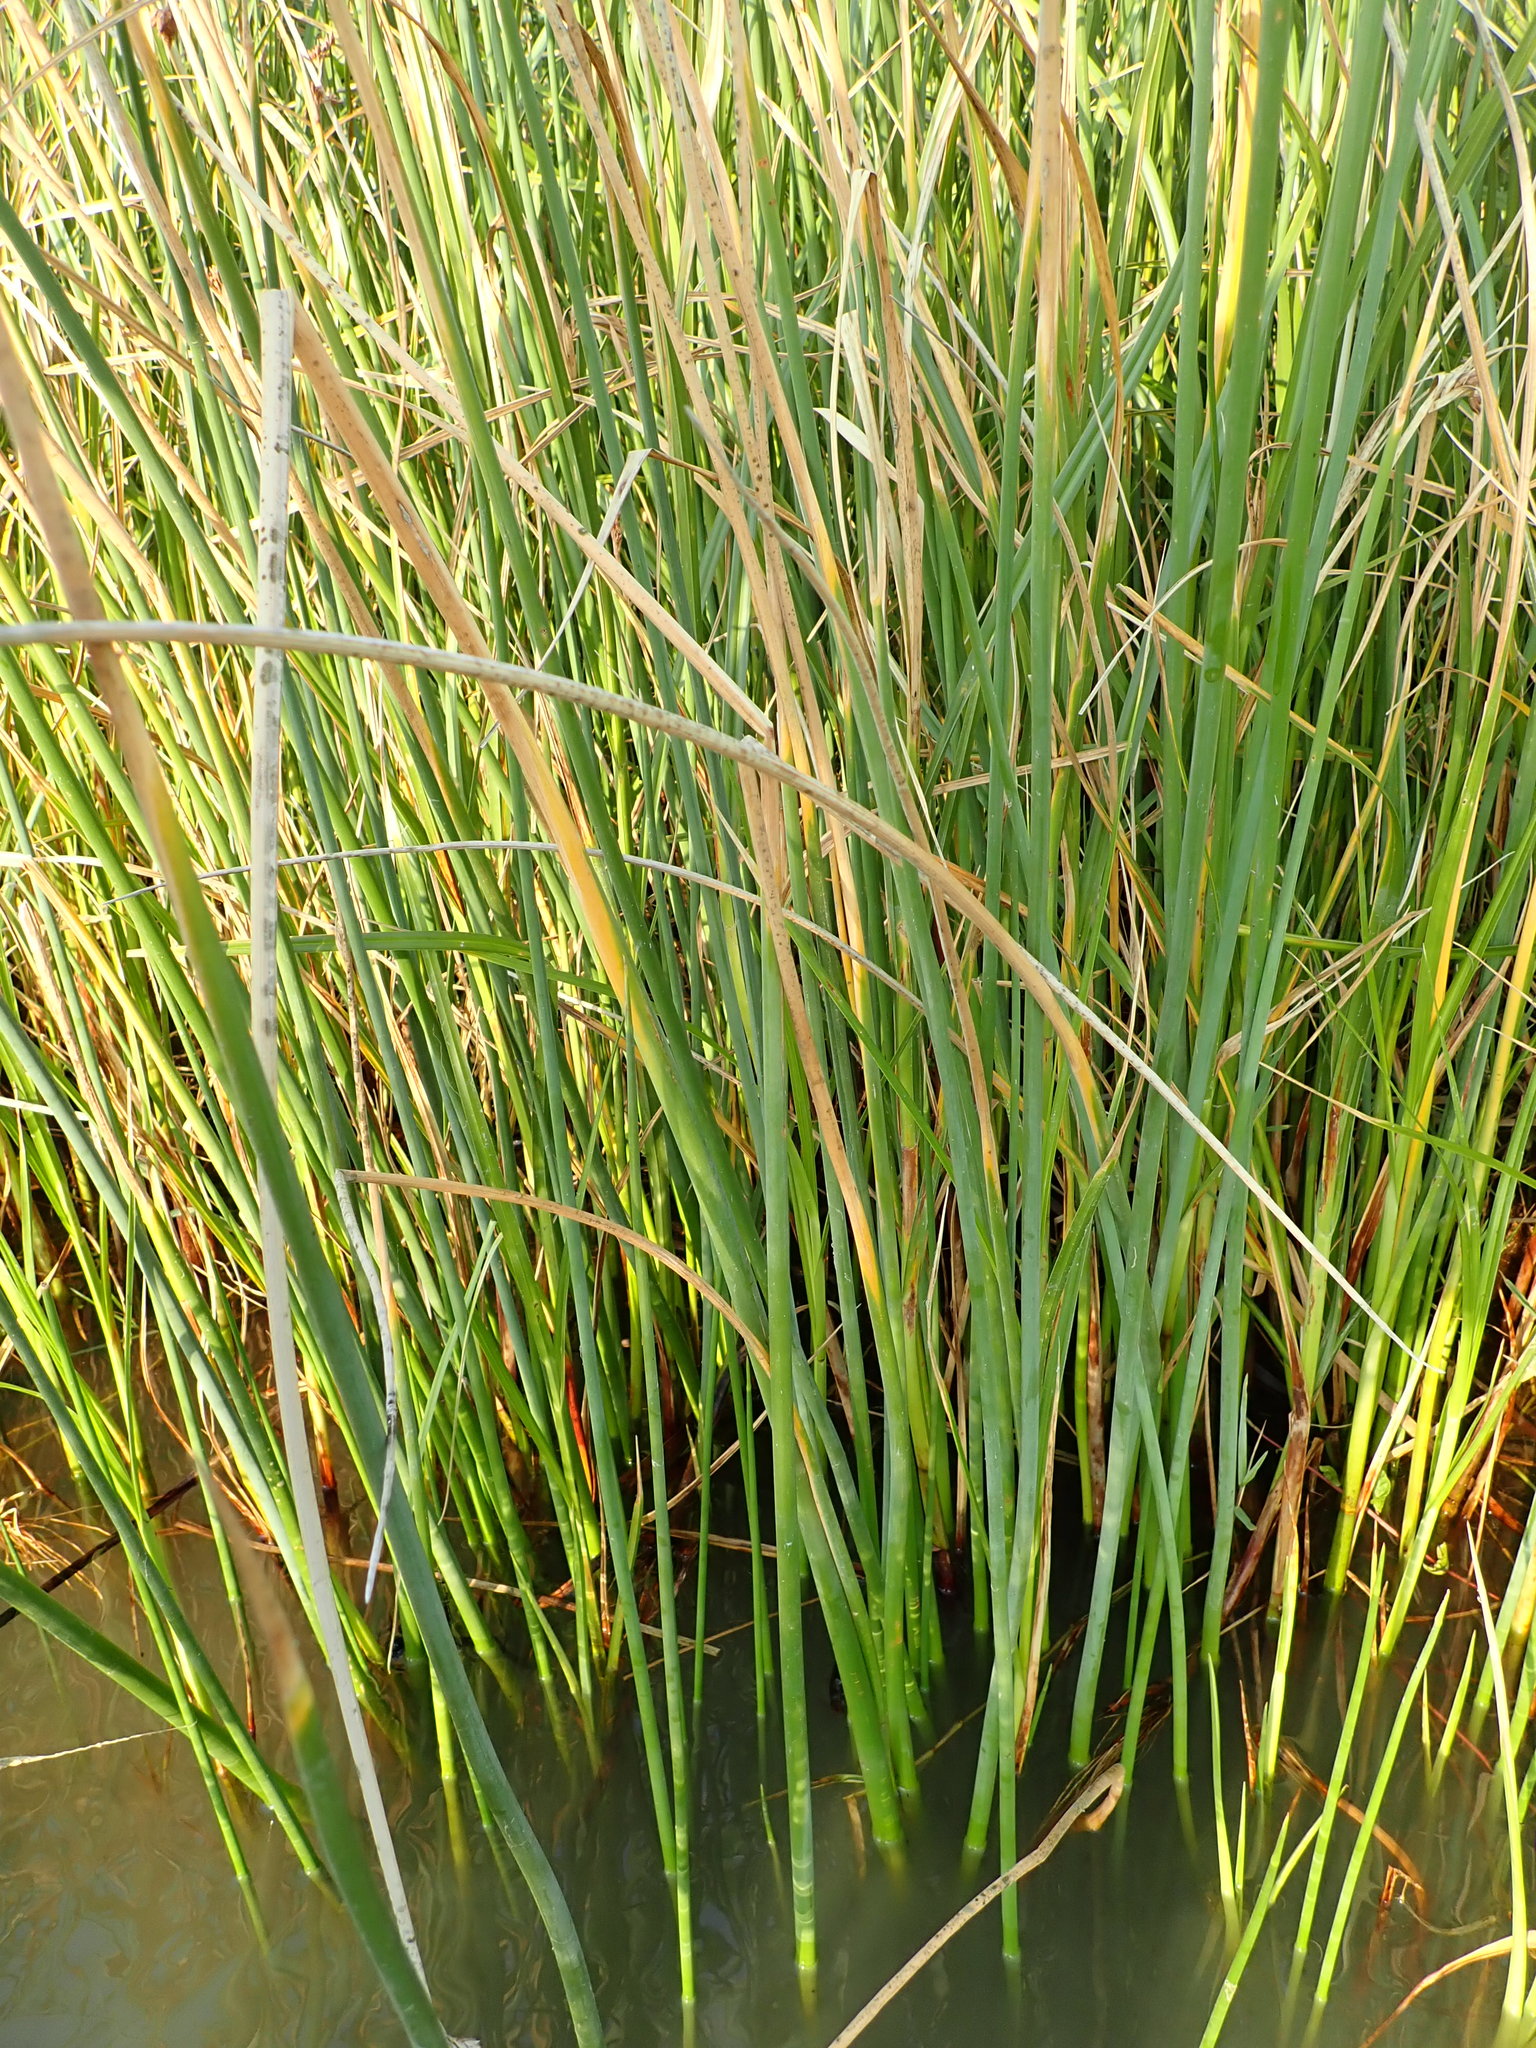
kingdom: Plantae
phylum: Tracheophyta
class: Liliopsida
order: Poales
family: Cyperaceae
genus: Schoenoplectus
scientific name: Schoenoplectus tabernaemontani
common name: Grey club-rush
